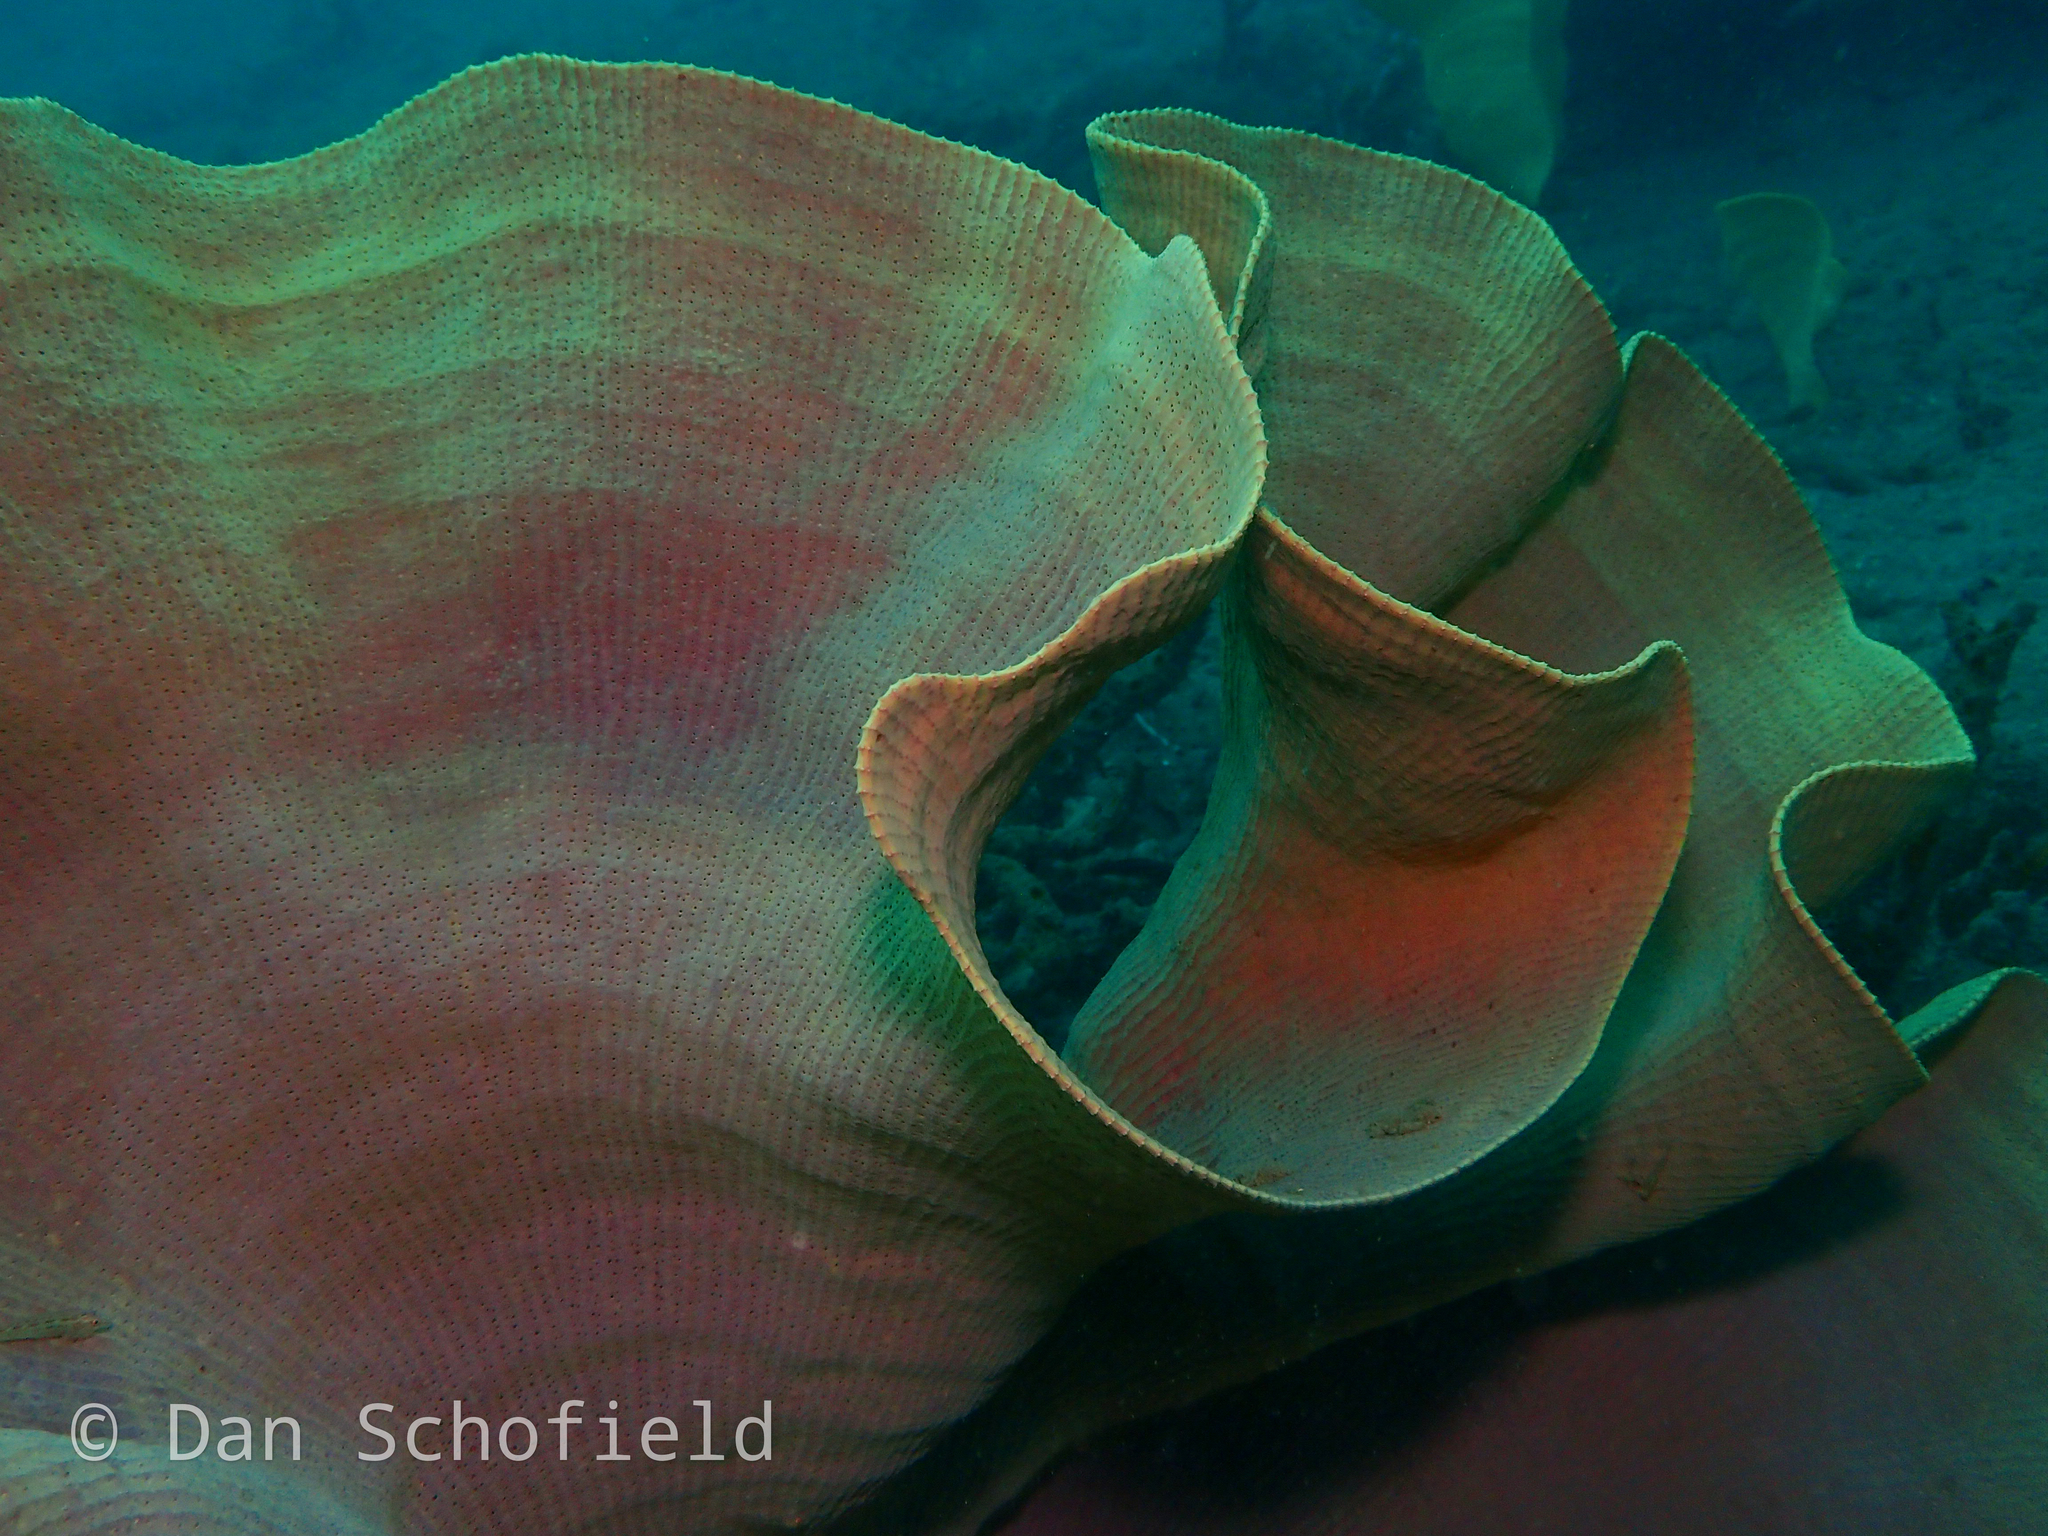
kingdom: Animalia
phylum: Porifera
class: Demospongiae
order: Verongiida
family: Ianthellidae
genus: Ianthella
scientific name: Ianthella basta
